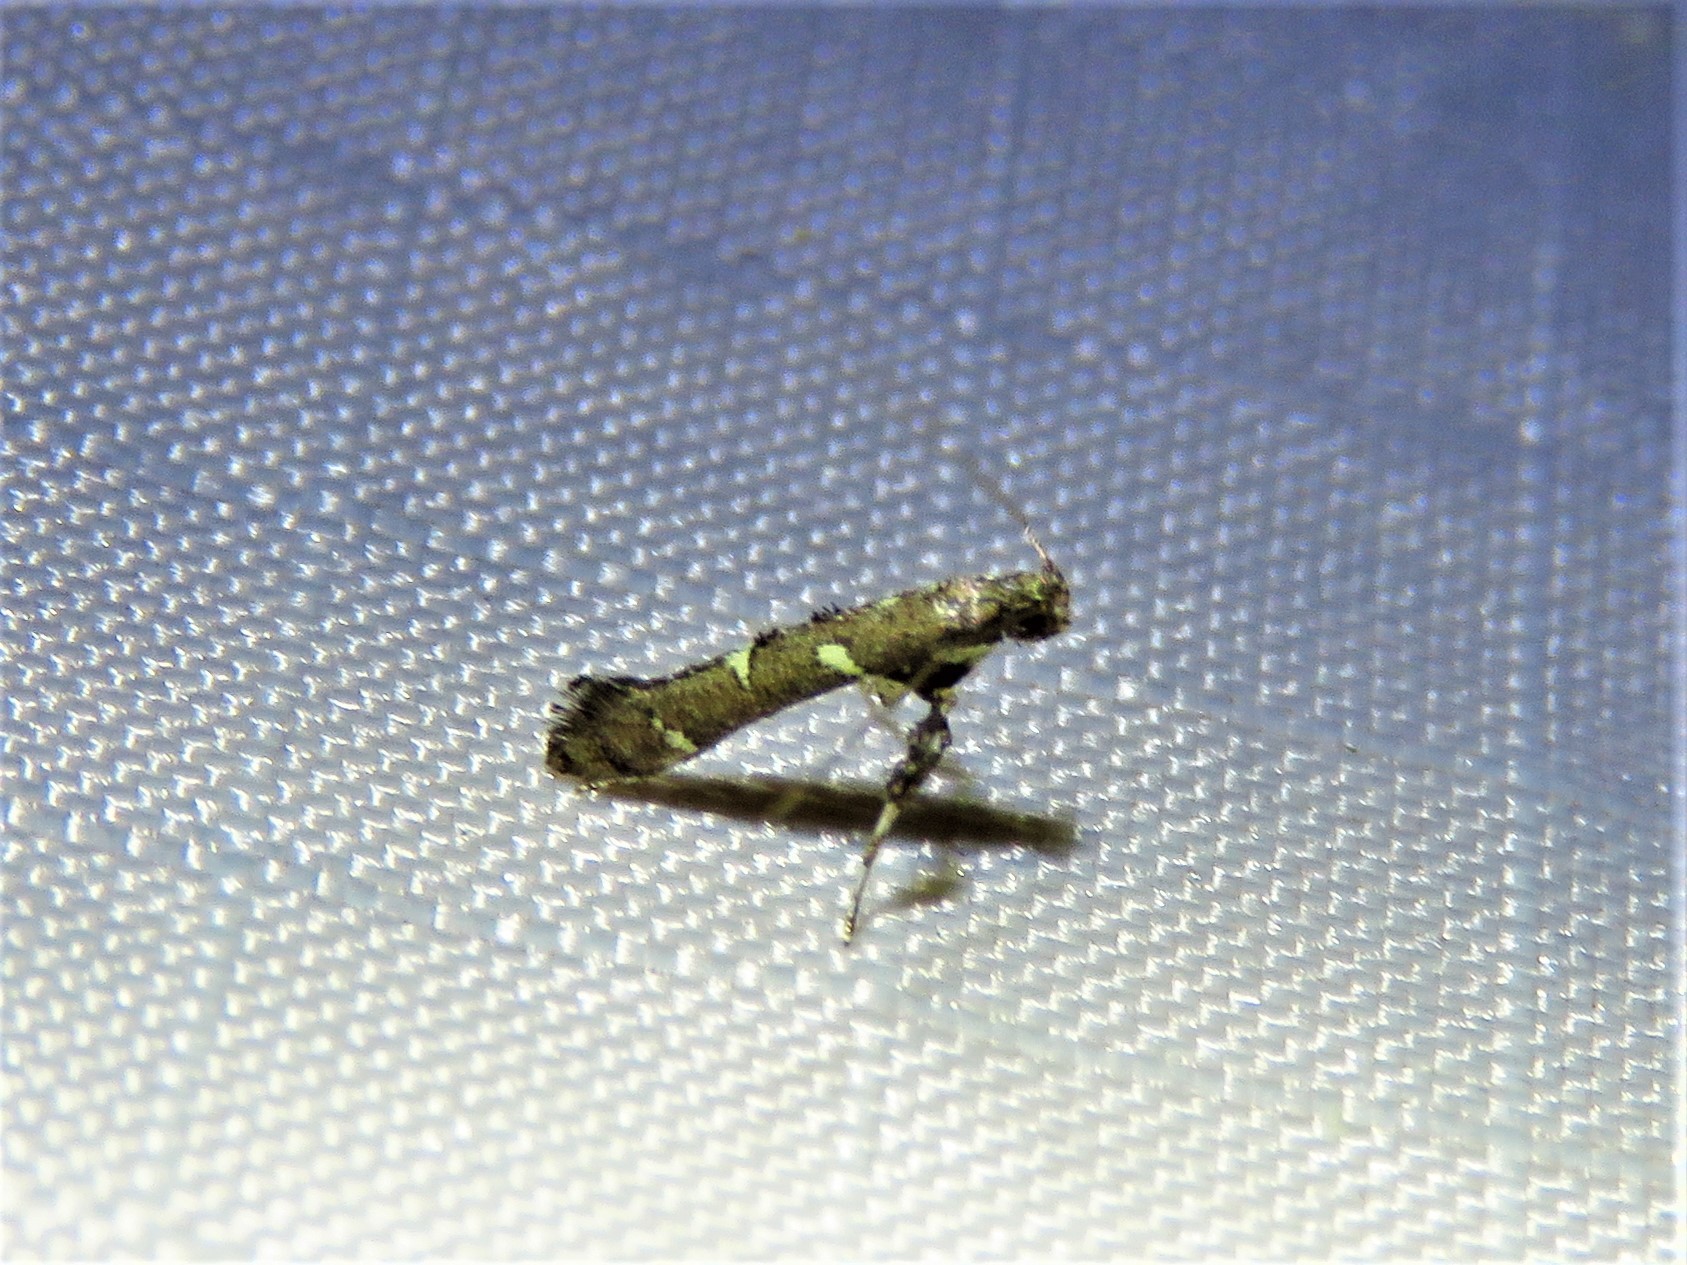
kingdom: Animalia
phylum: Arthropoda
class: Insecta
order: Lepidoptera
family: Gracillariidae
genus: Caloptilia
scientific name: Caloptilia triadicae
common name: Tallow leaf roller
